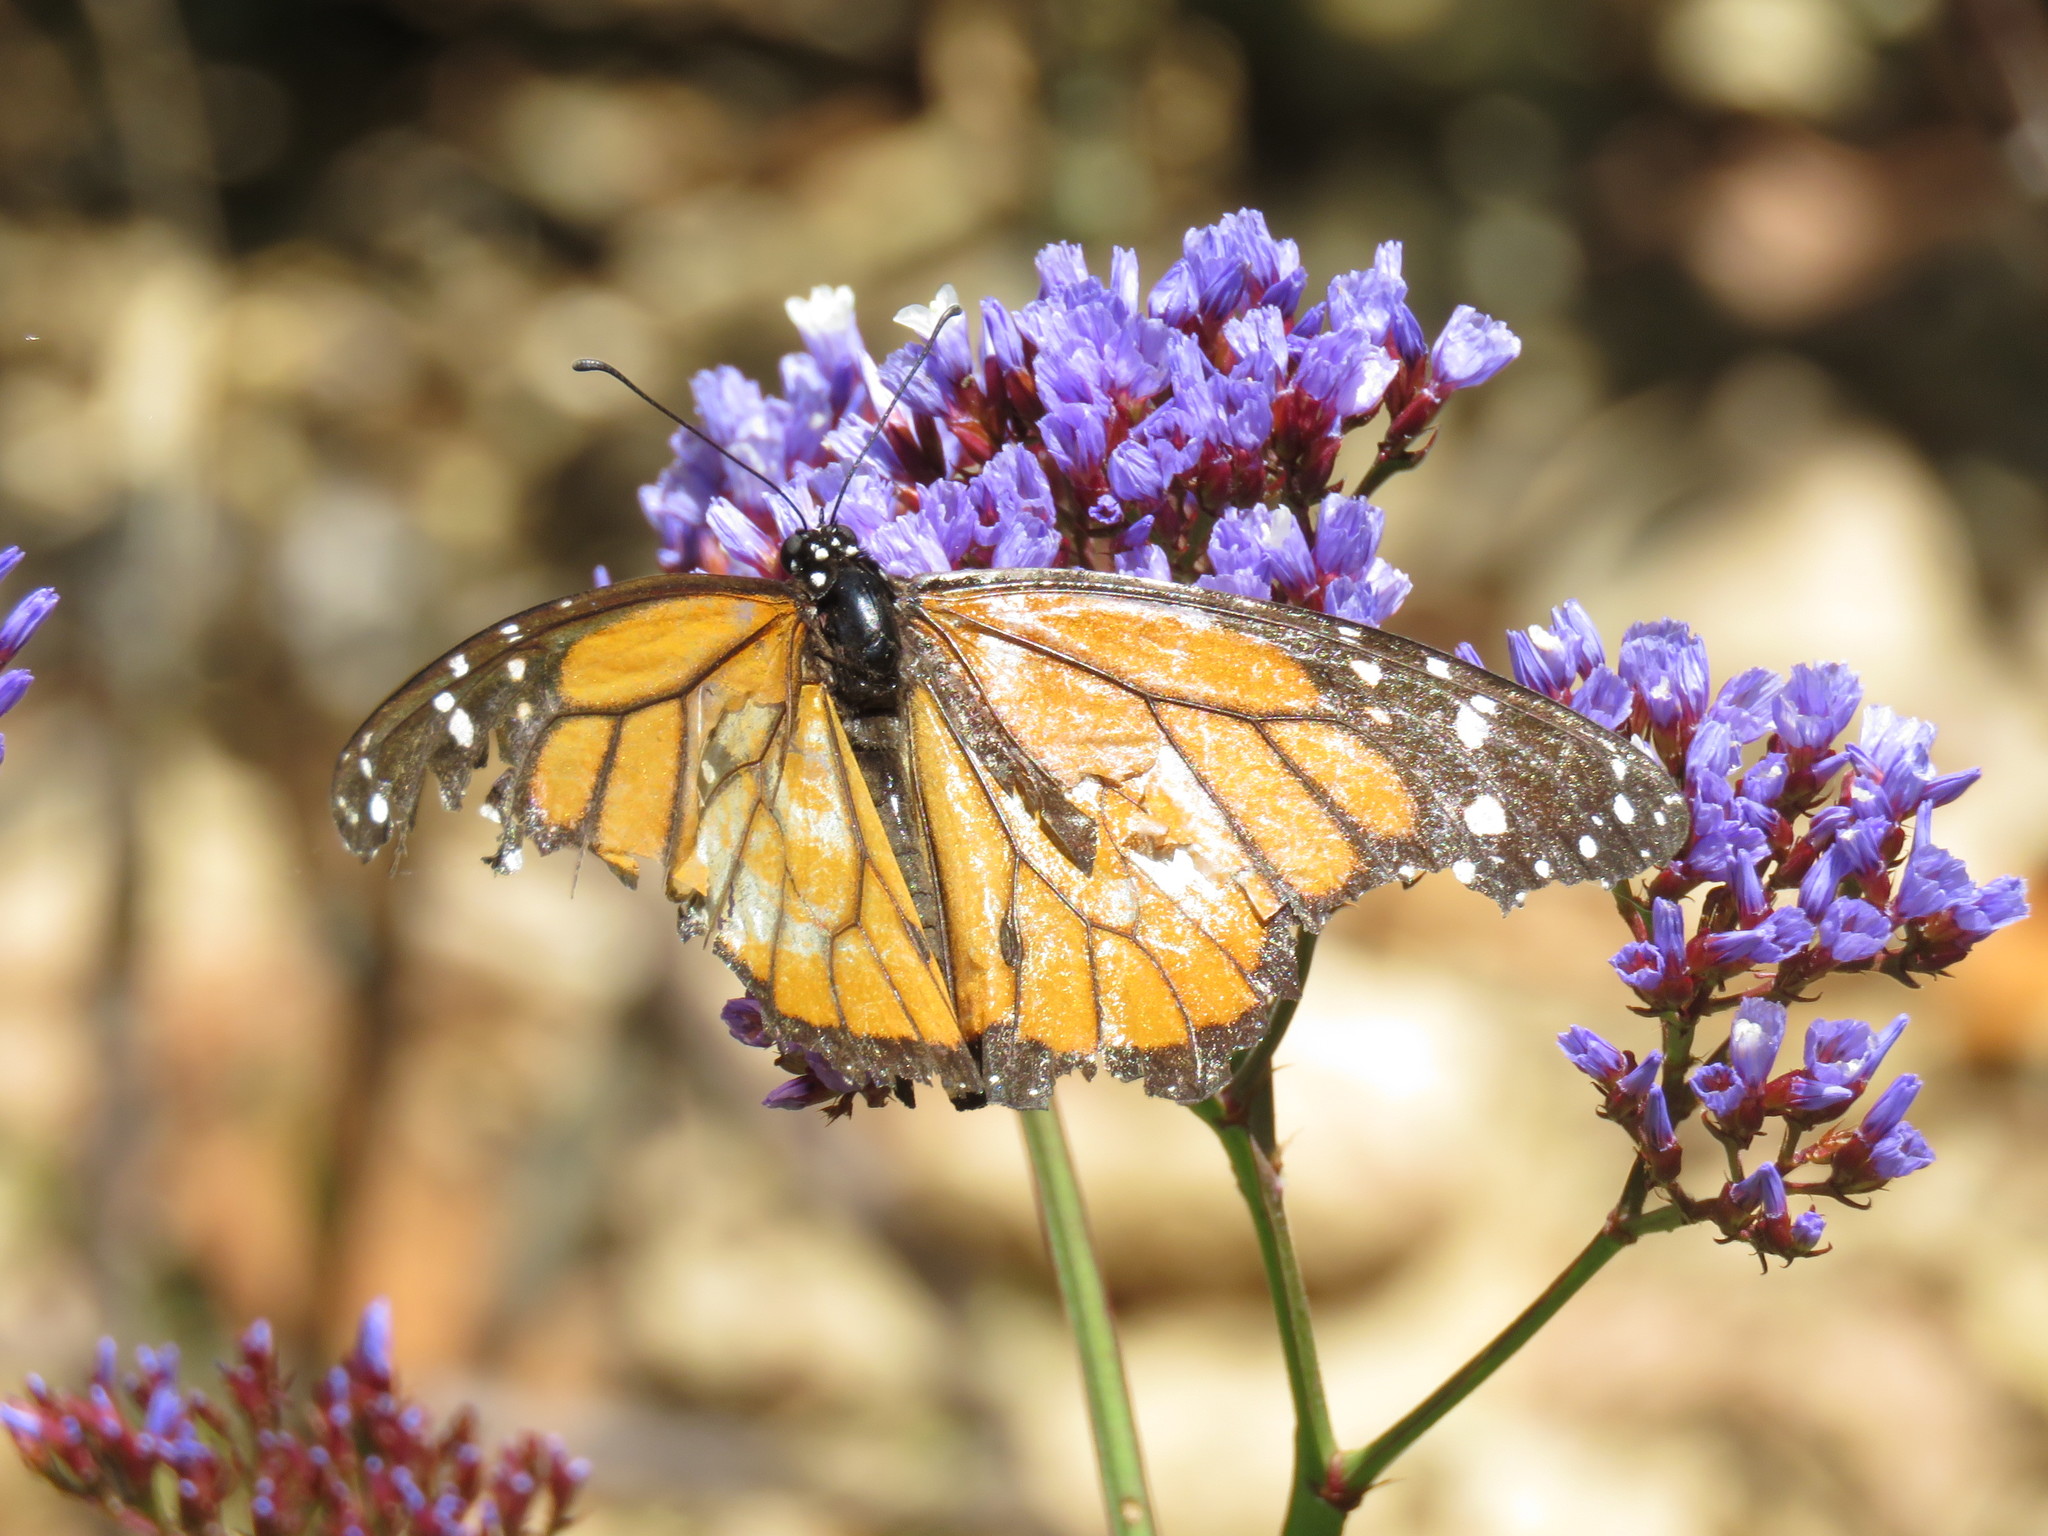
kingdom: Animalia
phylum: Arthropoda
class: Insecta
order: Lepidoptera
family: Nymphalidae
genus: Danaus
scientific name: Danaus plexippus
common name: Monarch
